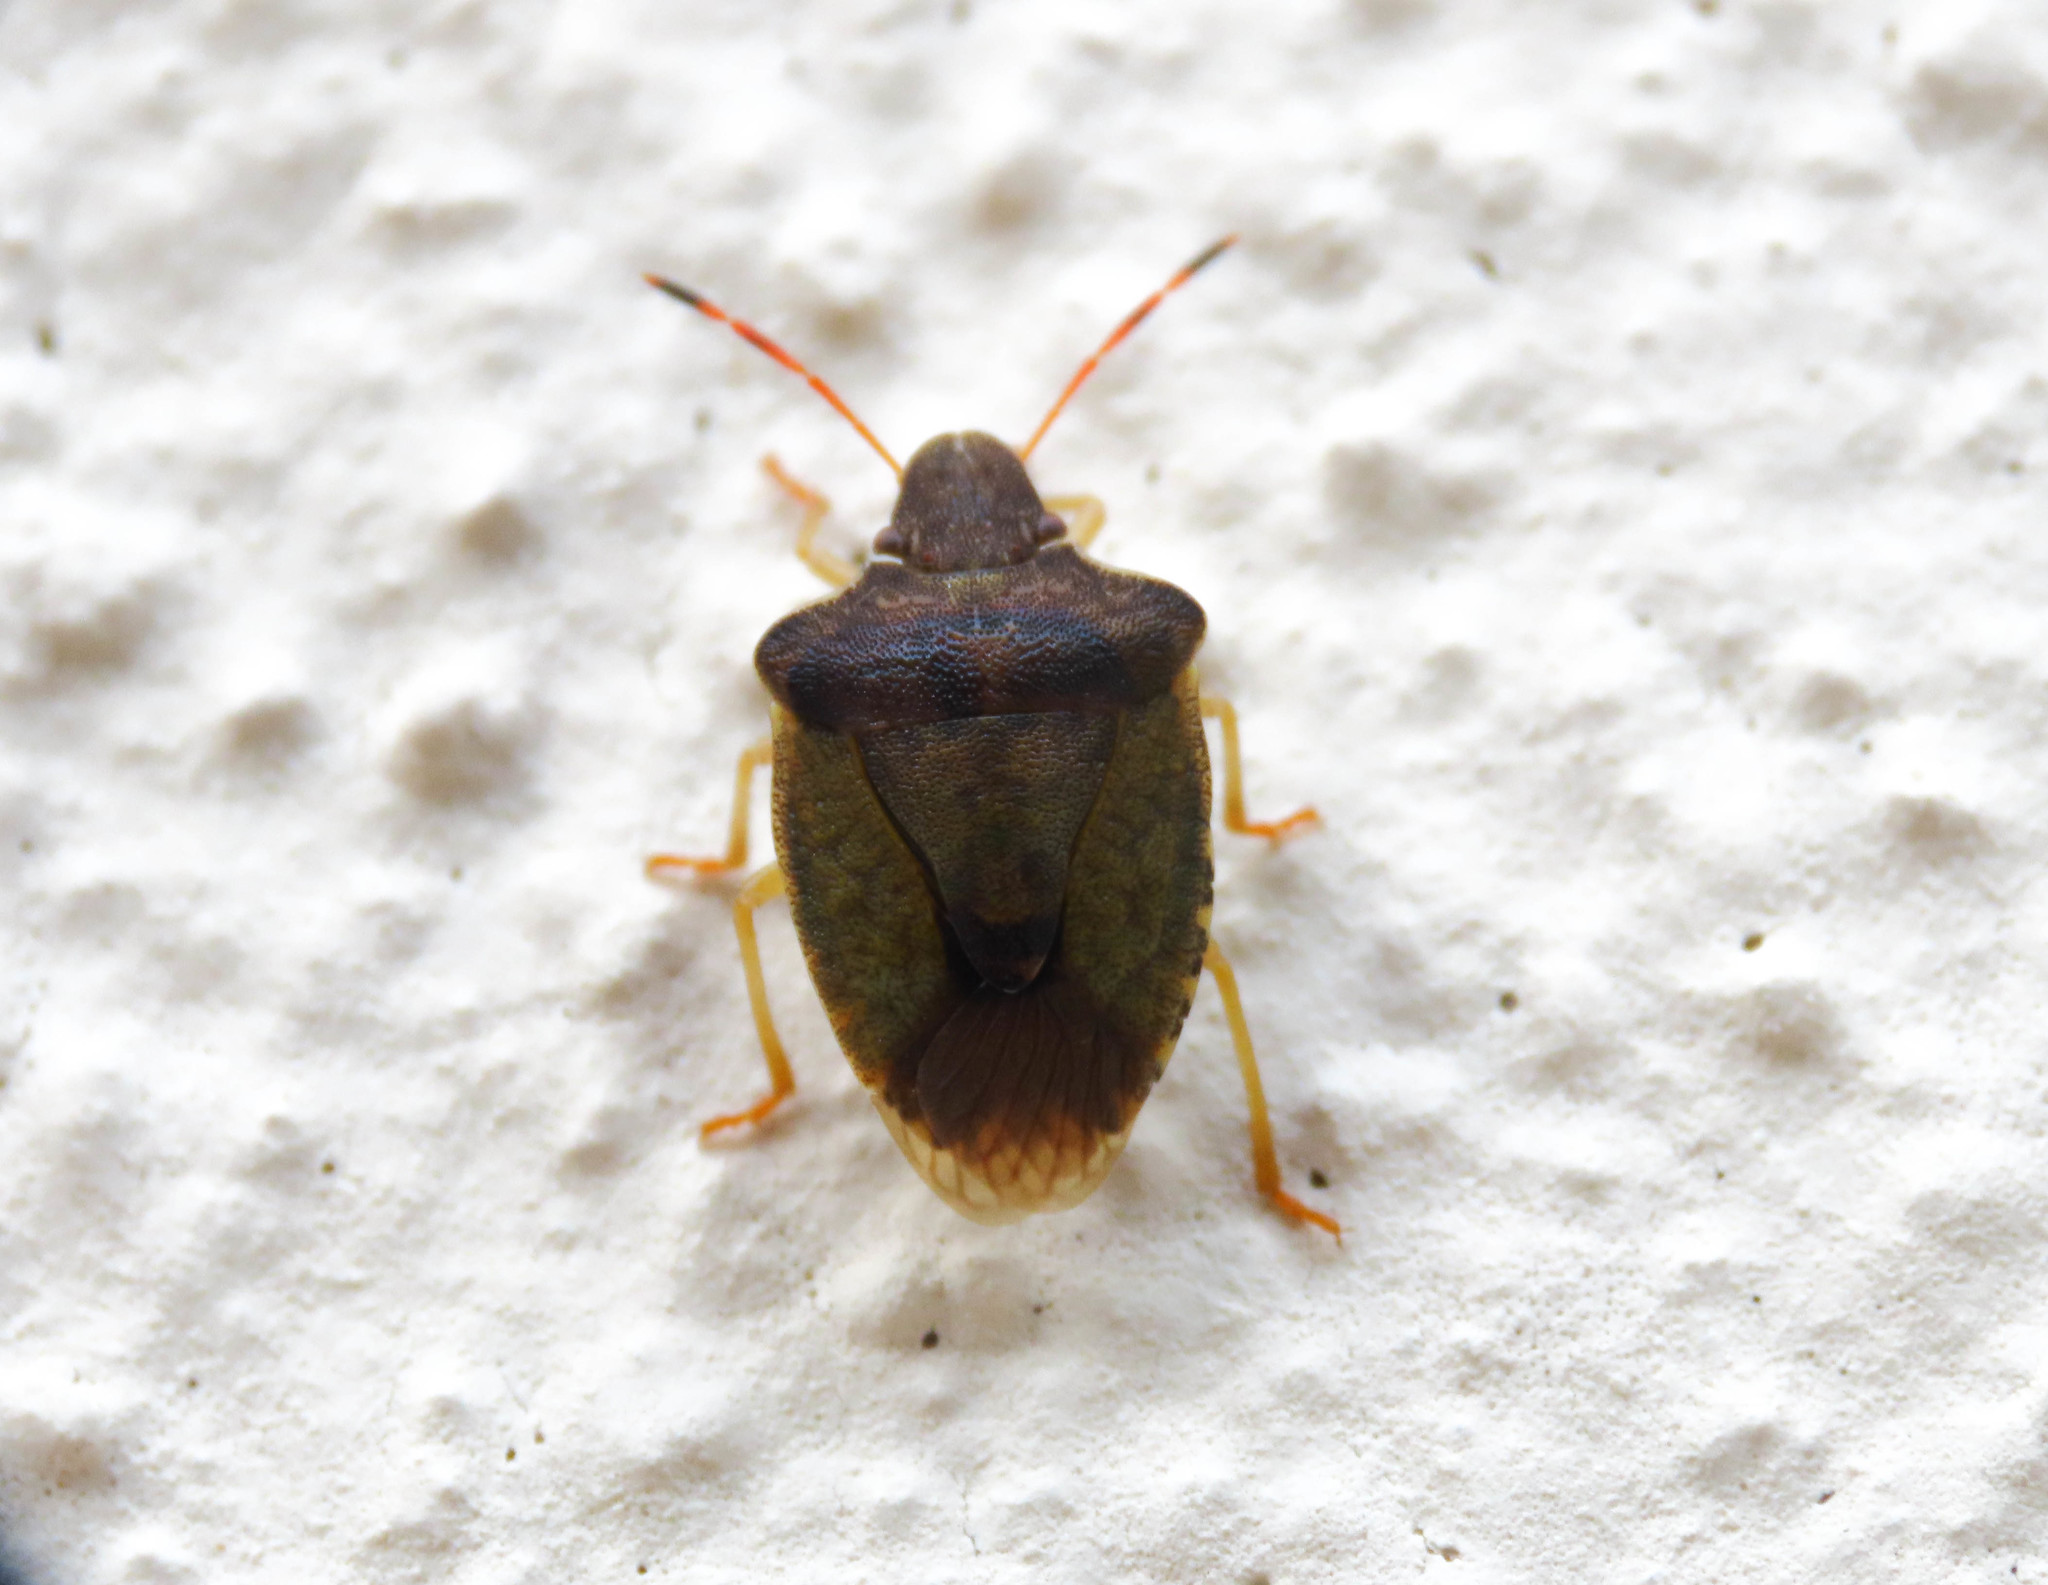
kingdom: Animalia
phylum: Arthropoda
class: Insecta
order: Hemiptera
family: Pentatomidae
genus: Holcostethus
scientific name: Holcostethus strictus
